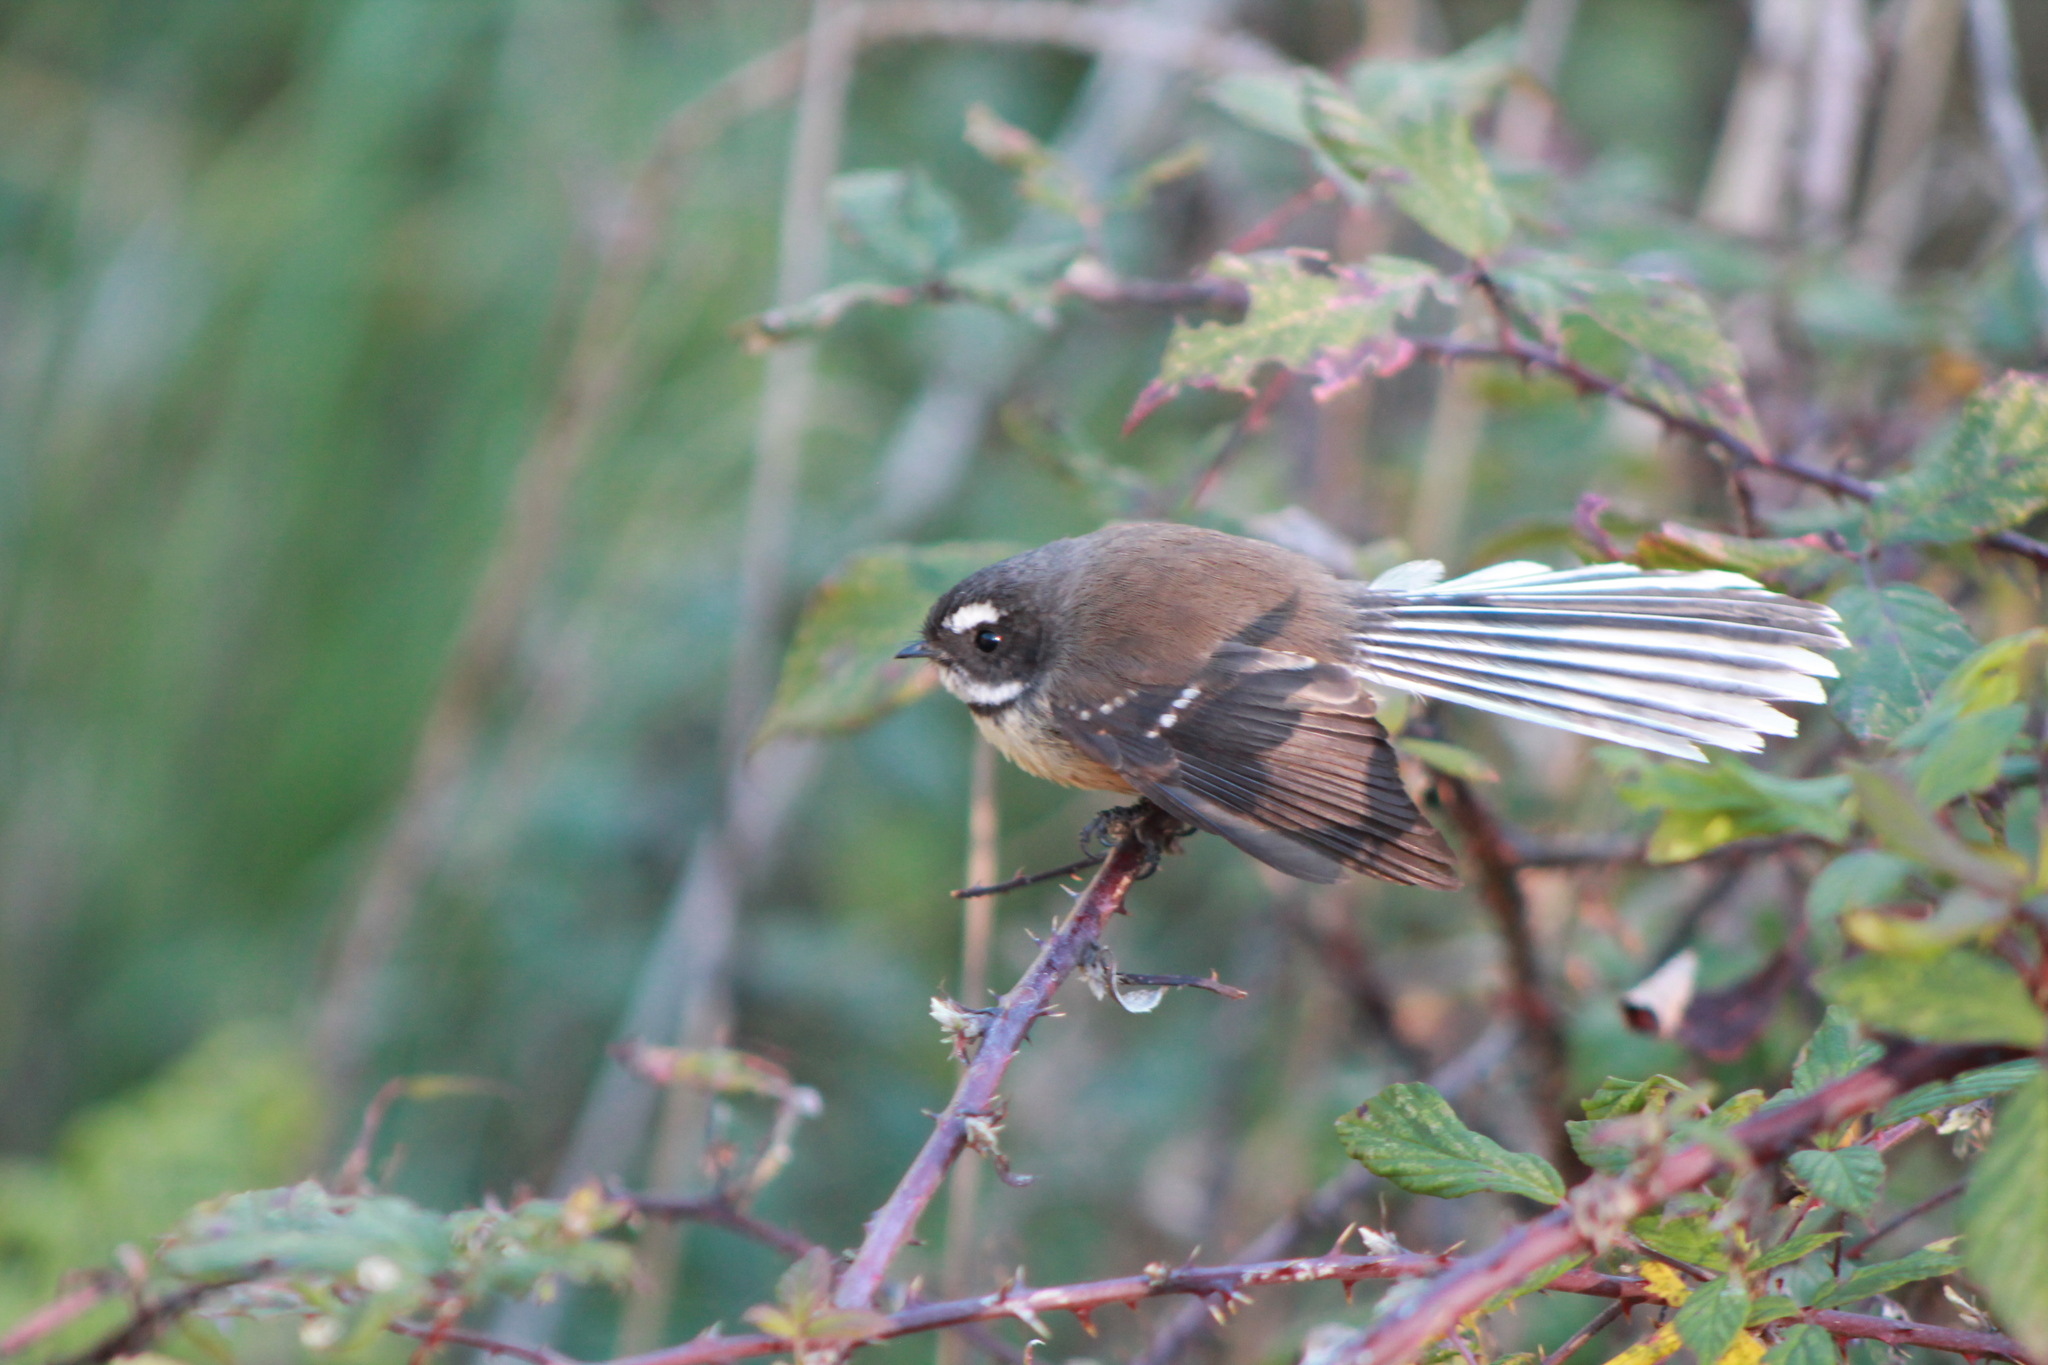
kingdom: Animalia
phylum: Chordata
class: Aves
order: Passeriformes
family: Rhipiduridae
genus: Rhipidura
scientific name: Rhipidura fuliginosa
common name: New zealand fantail
